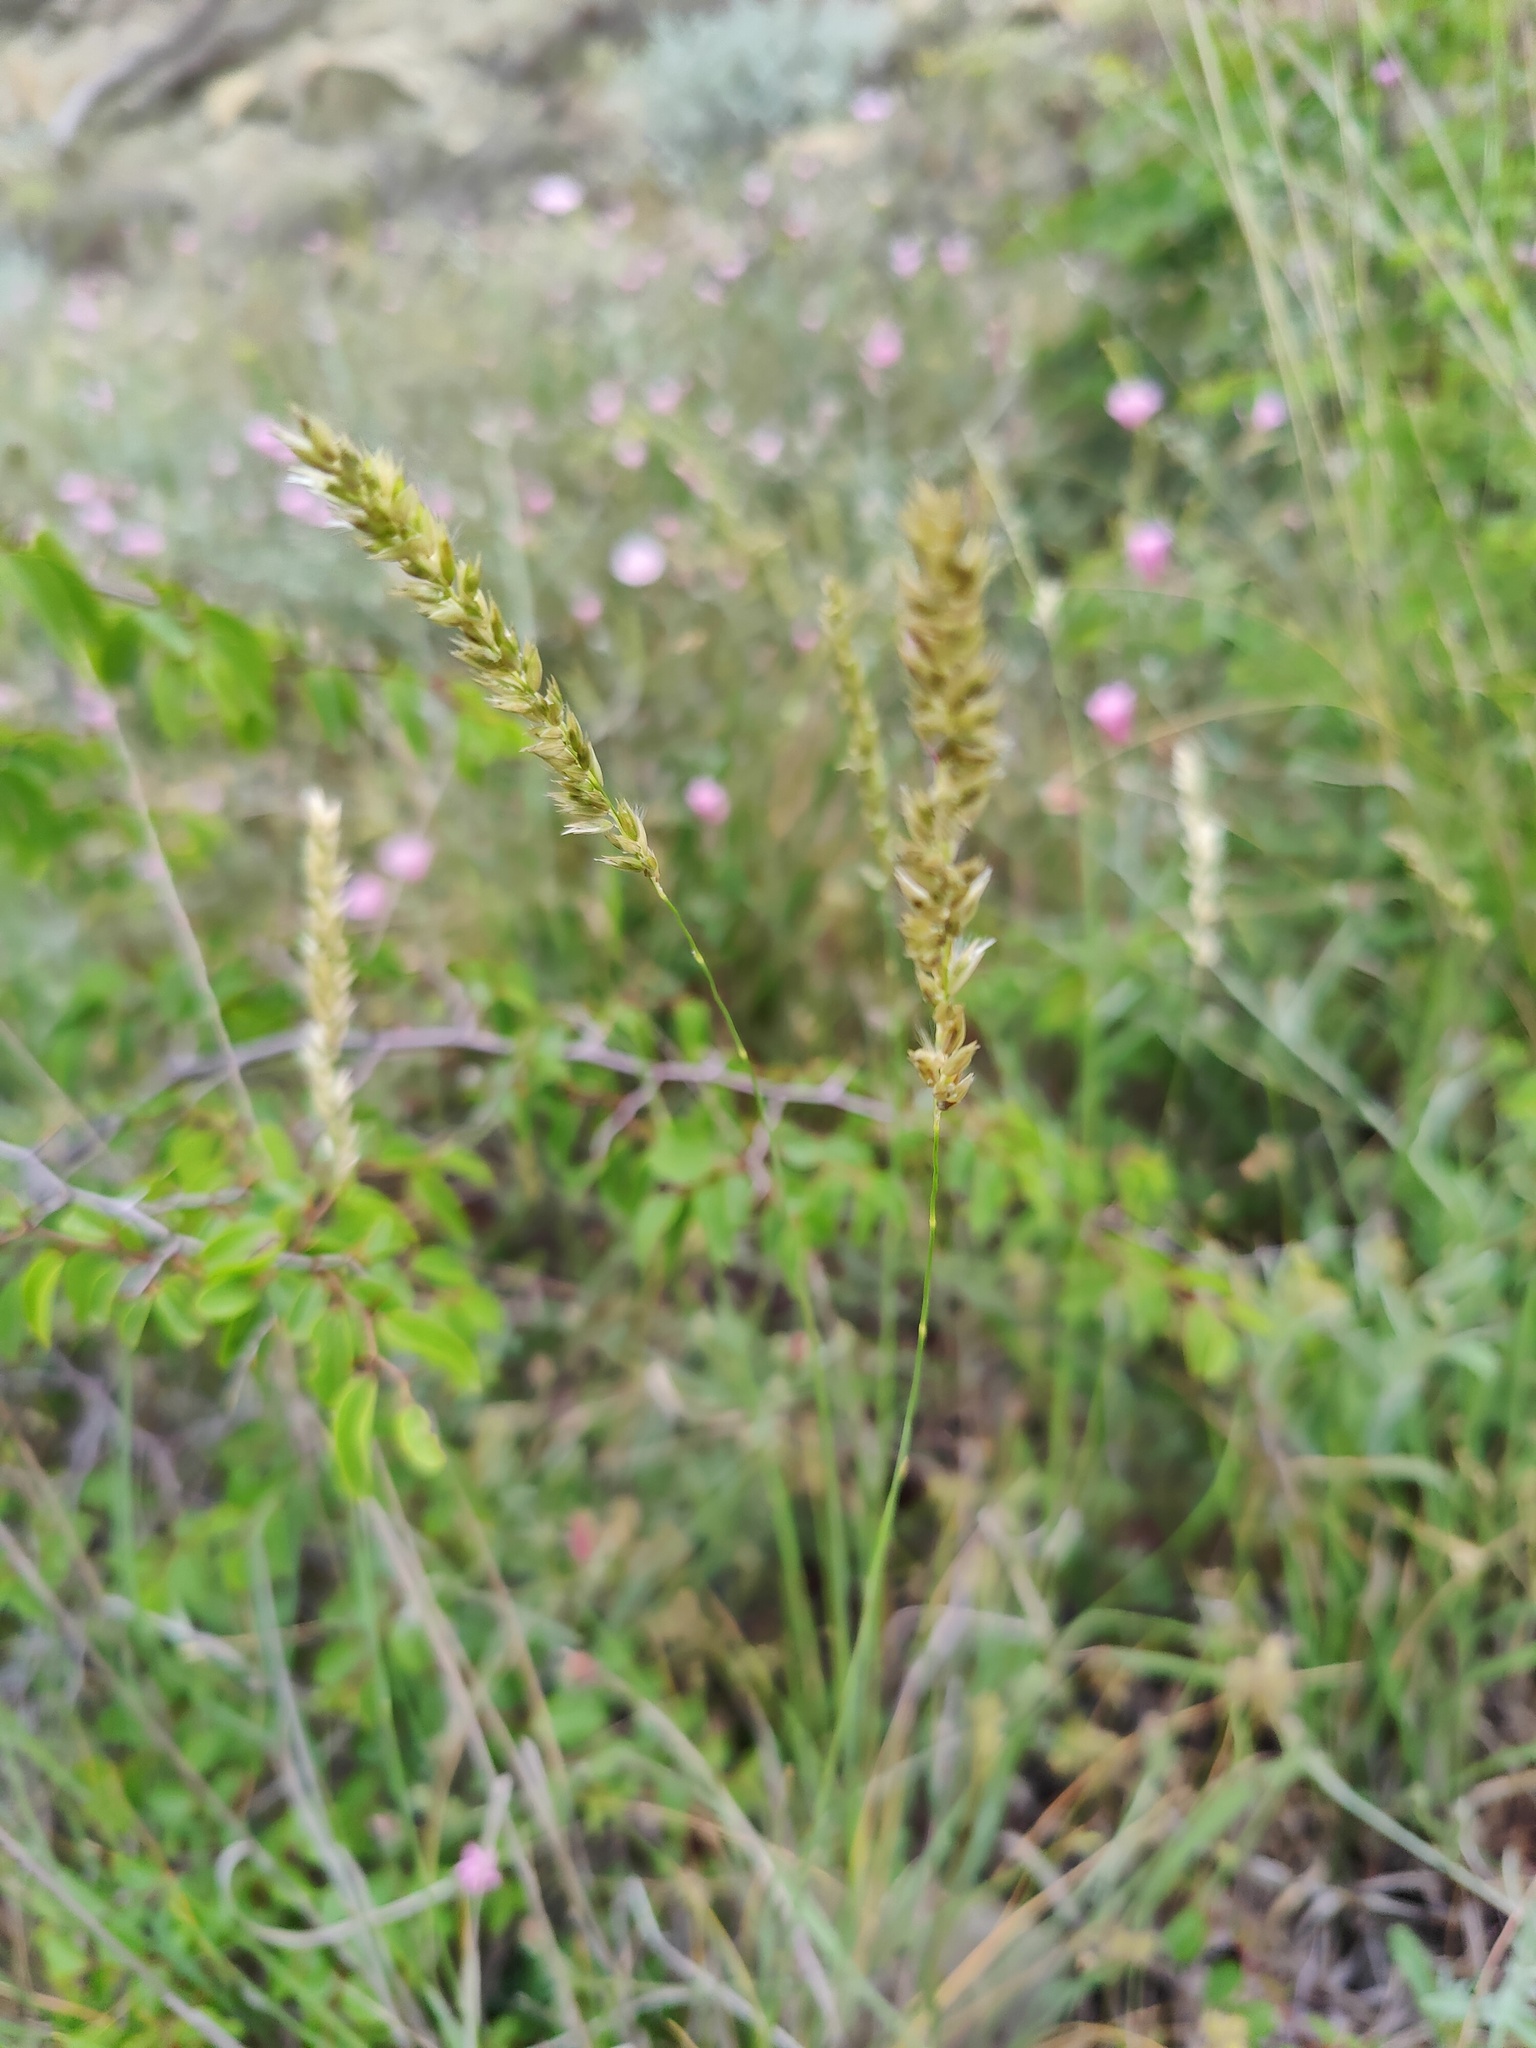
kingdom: Plantae
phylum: Tracheophyta
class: Liliopsida
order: Poales
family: Poaceae
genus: Melica
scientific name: Melica transsilvanica
